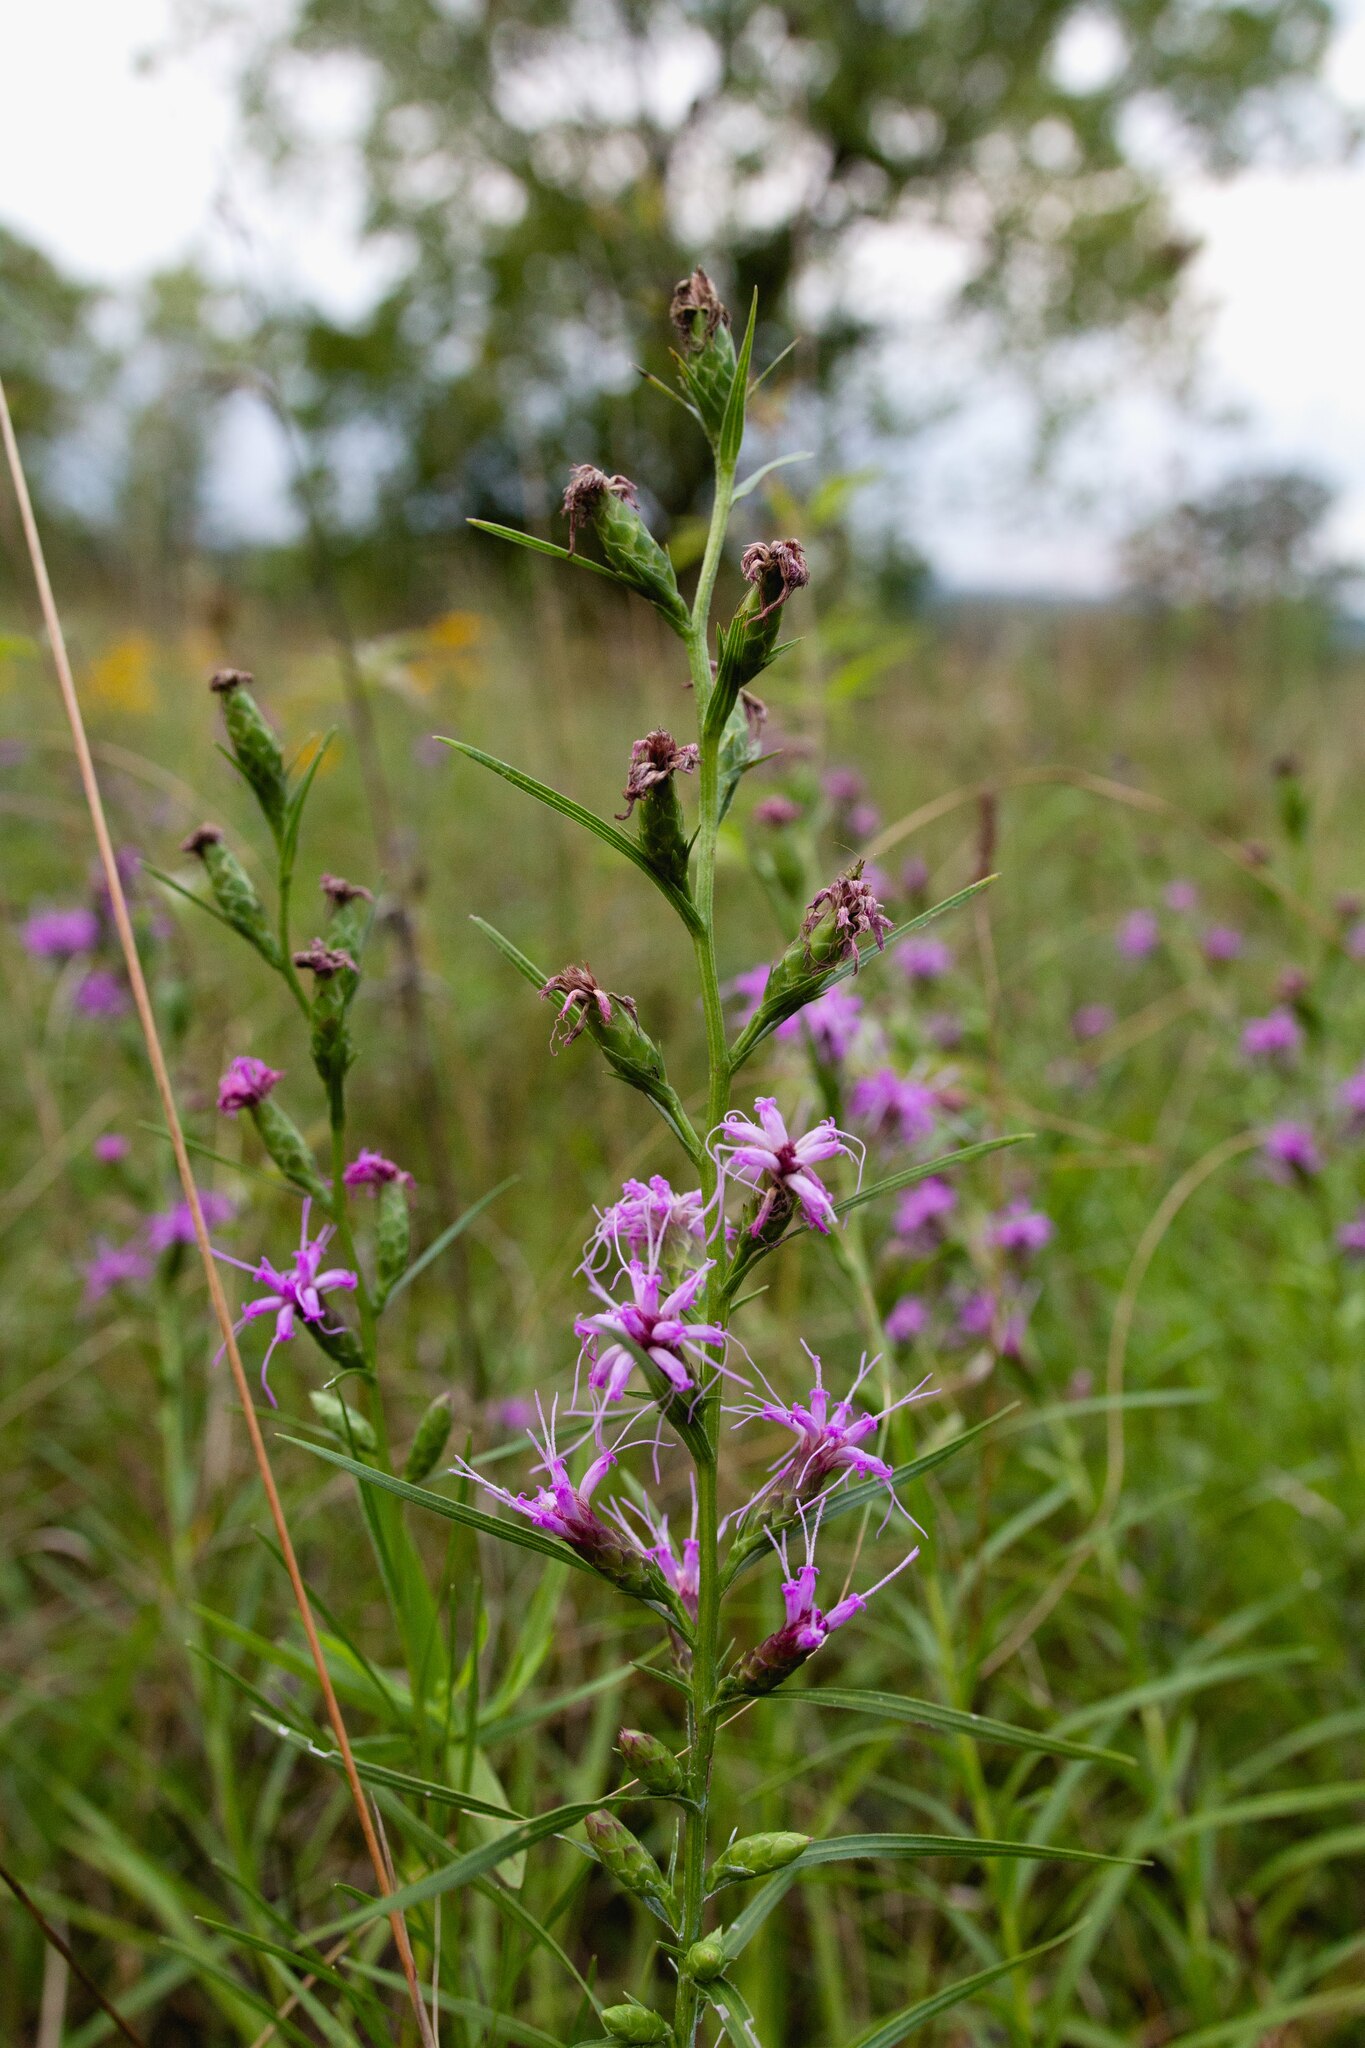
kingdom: Plantae
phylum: Tracheophyta
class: Magnoliopsida
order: Asterales
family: Asteraceae
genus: Liatris
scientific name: Liatris cylindracea
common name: Few-head blazingstar
